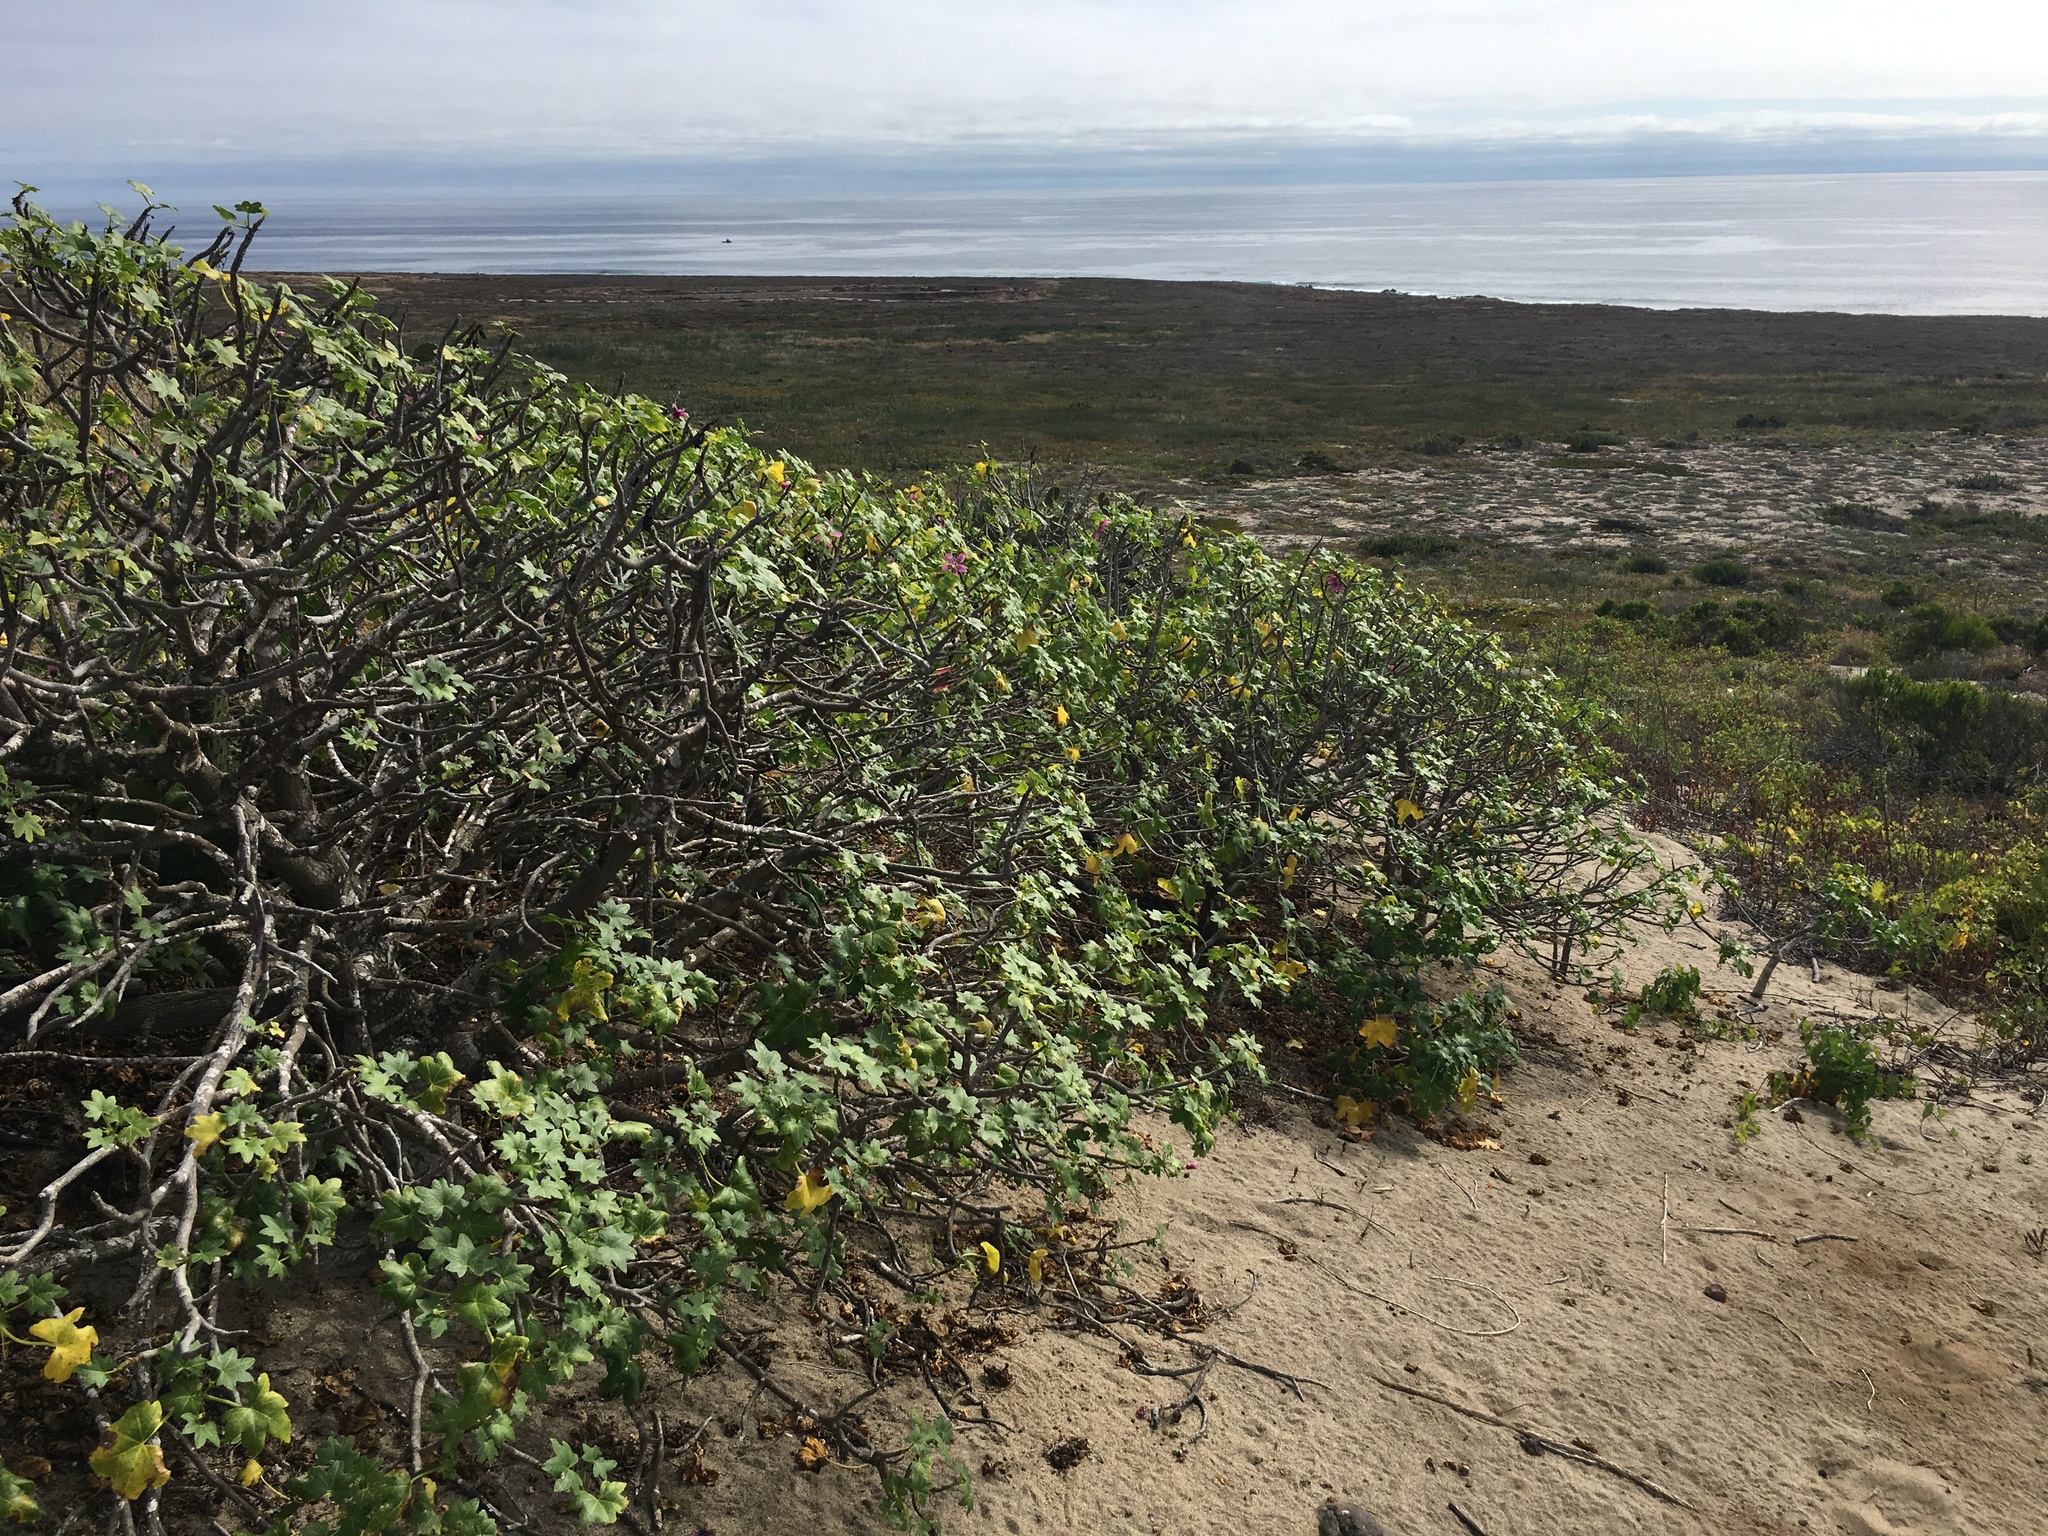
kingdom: Plantae
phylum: Tracheophyta
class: Magnoliopsida
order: Malvales
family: Malvaceae
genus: Malva
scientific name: Malva assurgentiflora
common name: Island mallow
